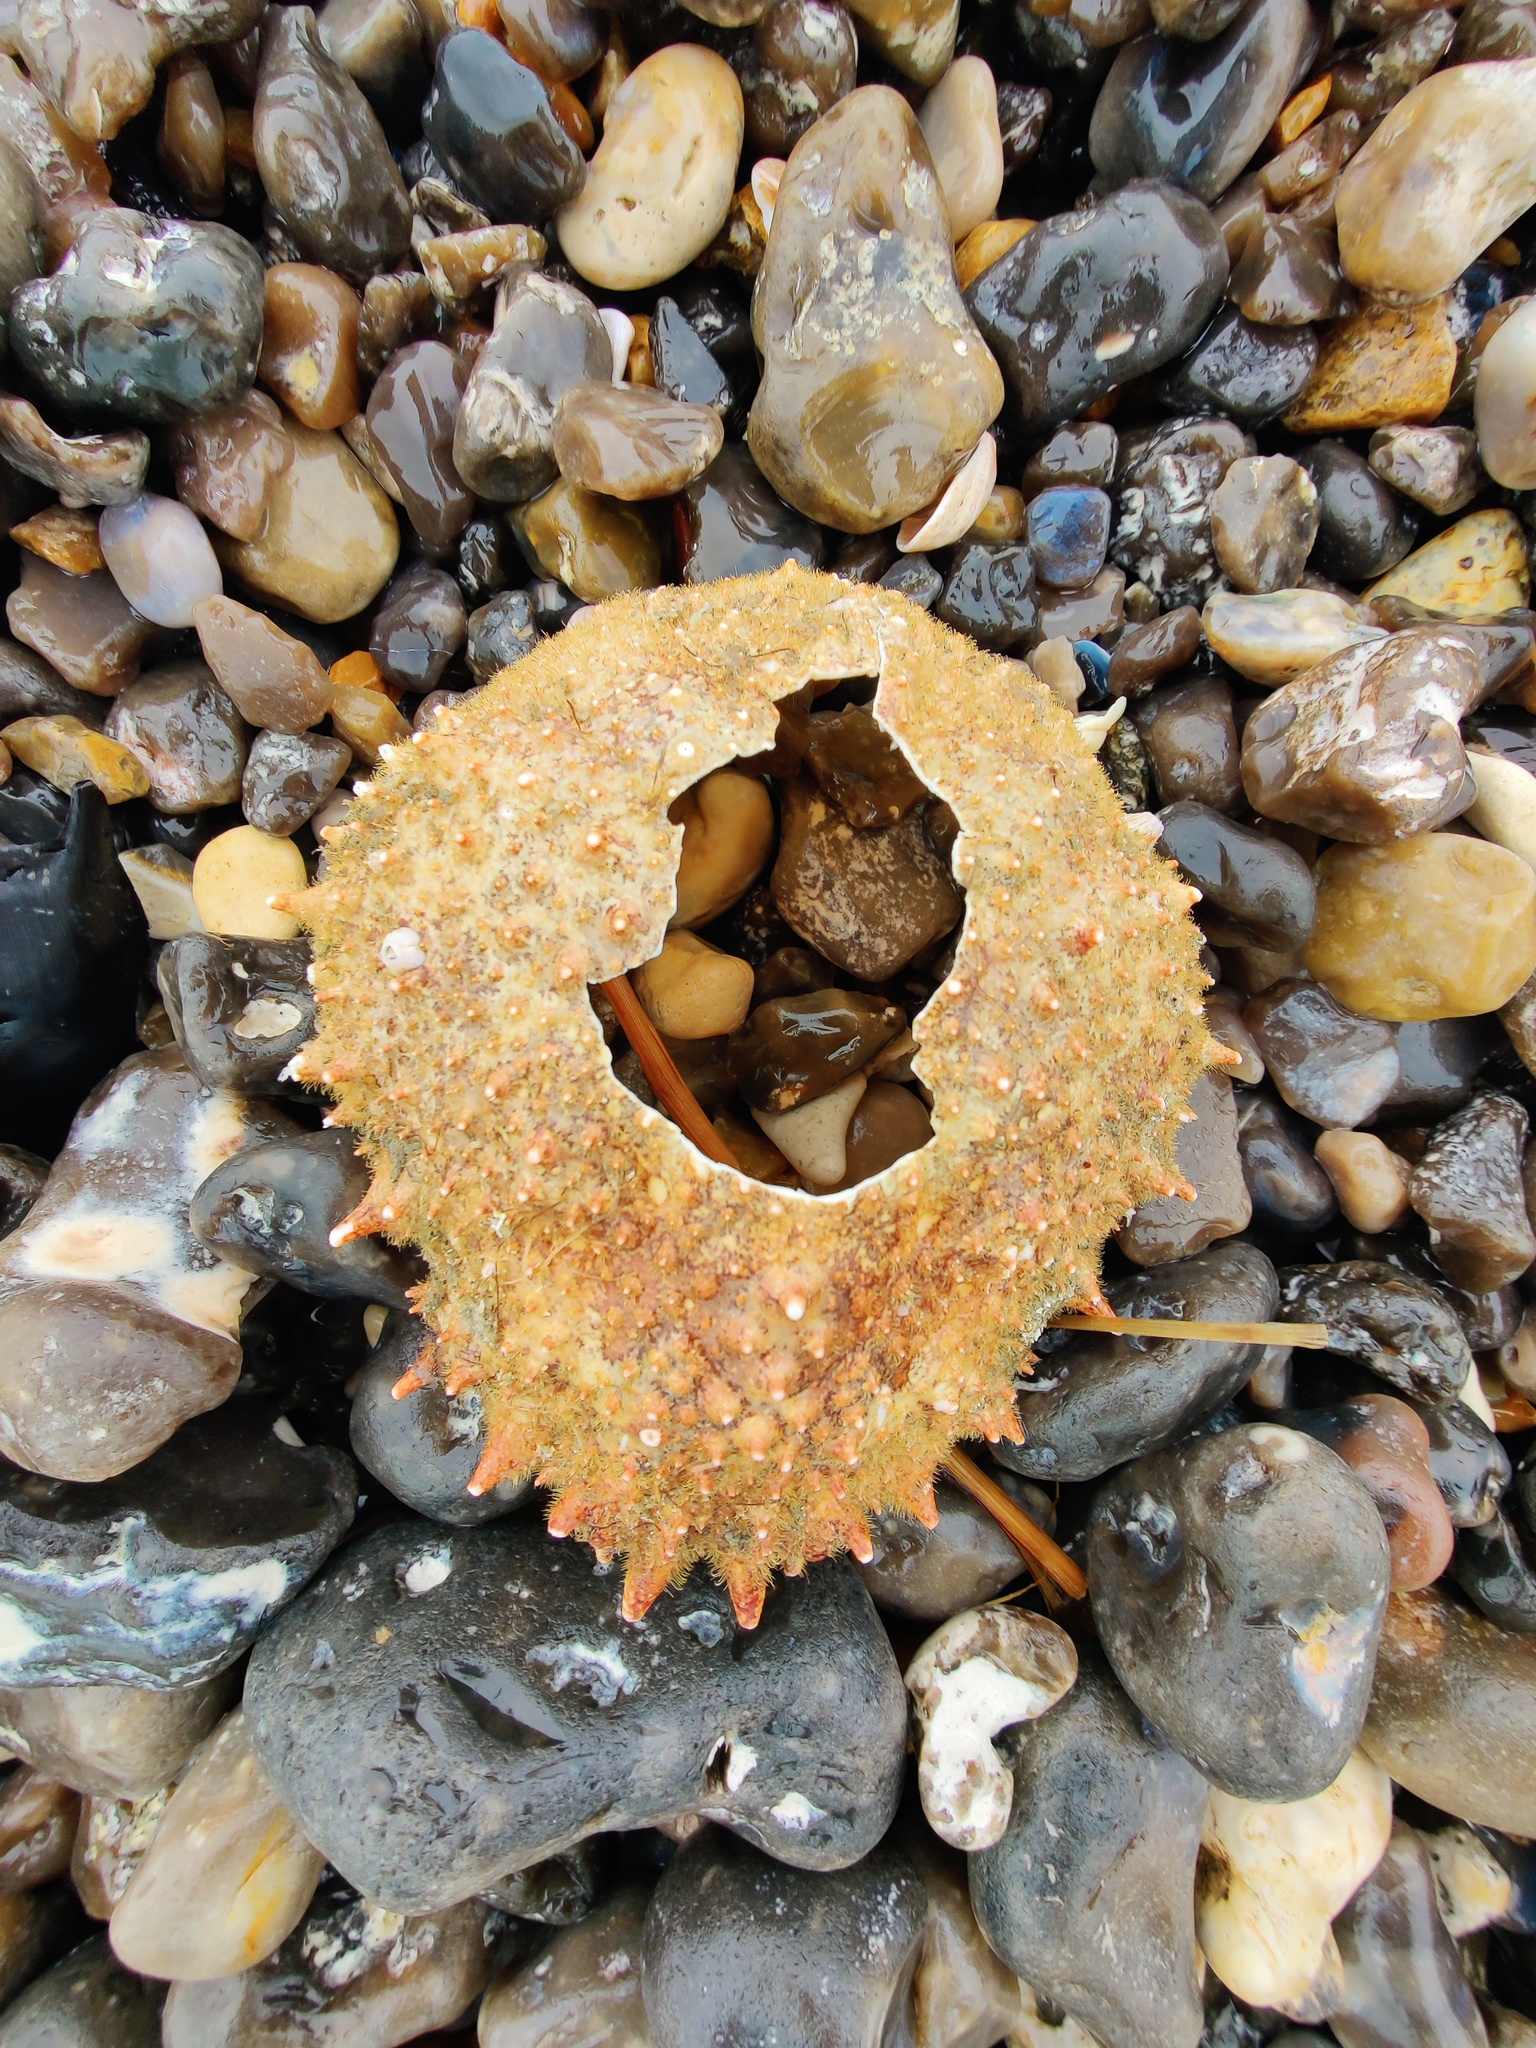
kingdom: Animalia
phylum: Arthropoda
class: Malacostraca
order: Decapoda
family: Majidae
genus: Maja
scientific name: Maja brachydactyla
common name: Common spider crab
